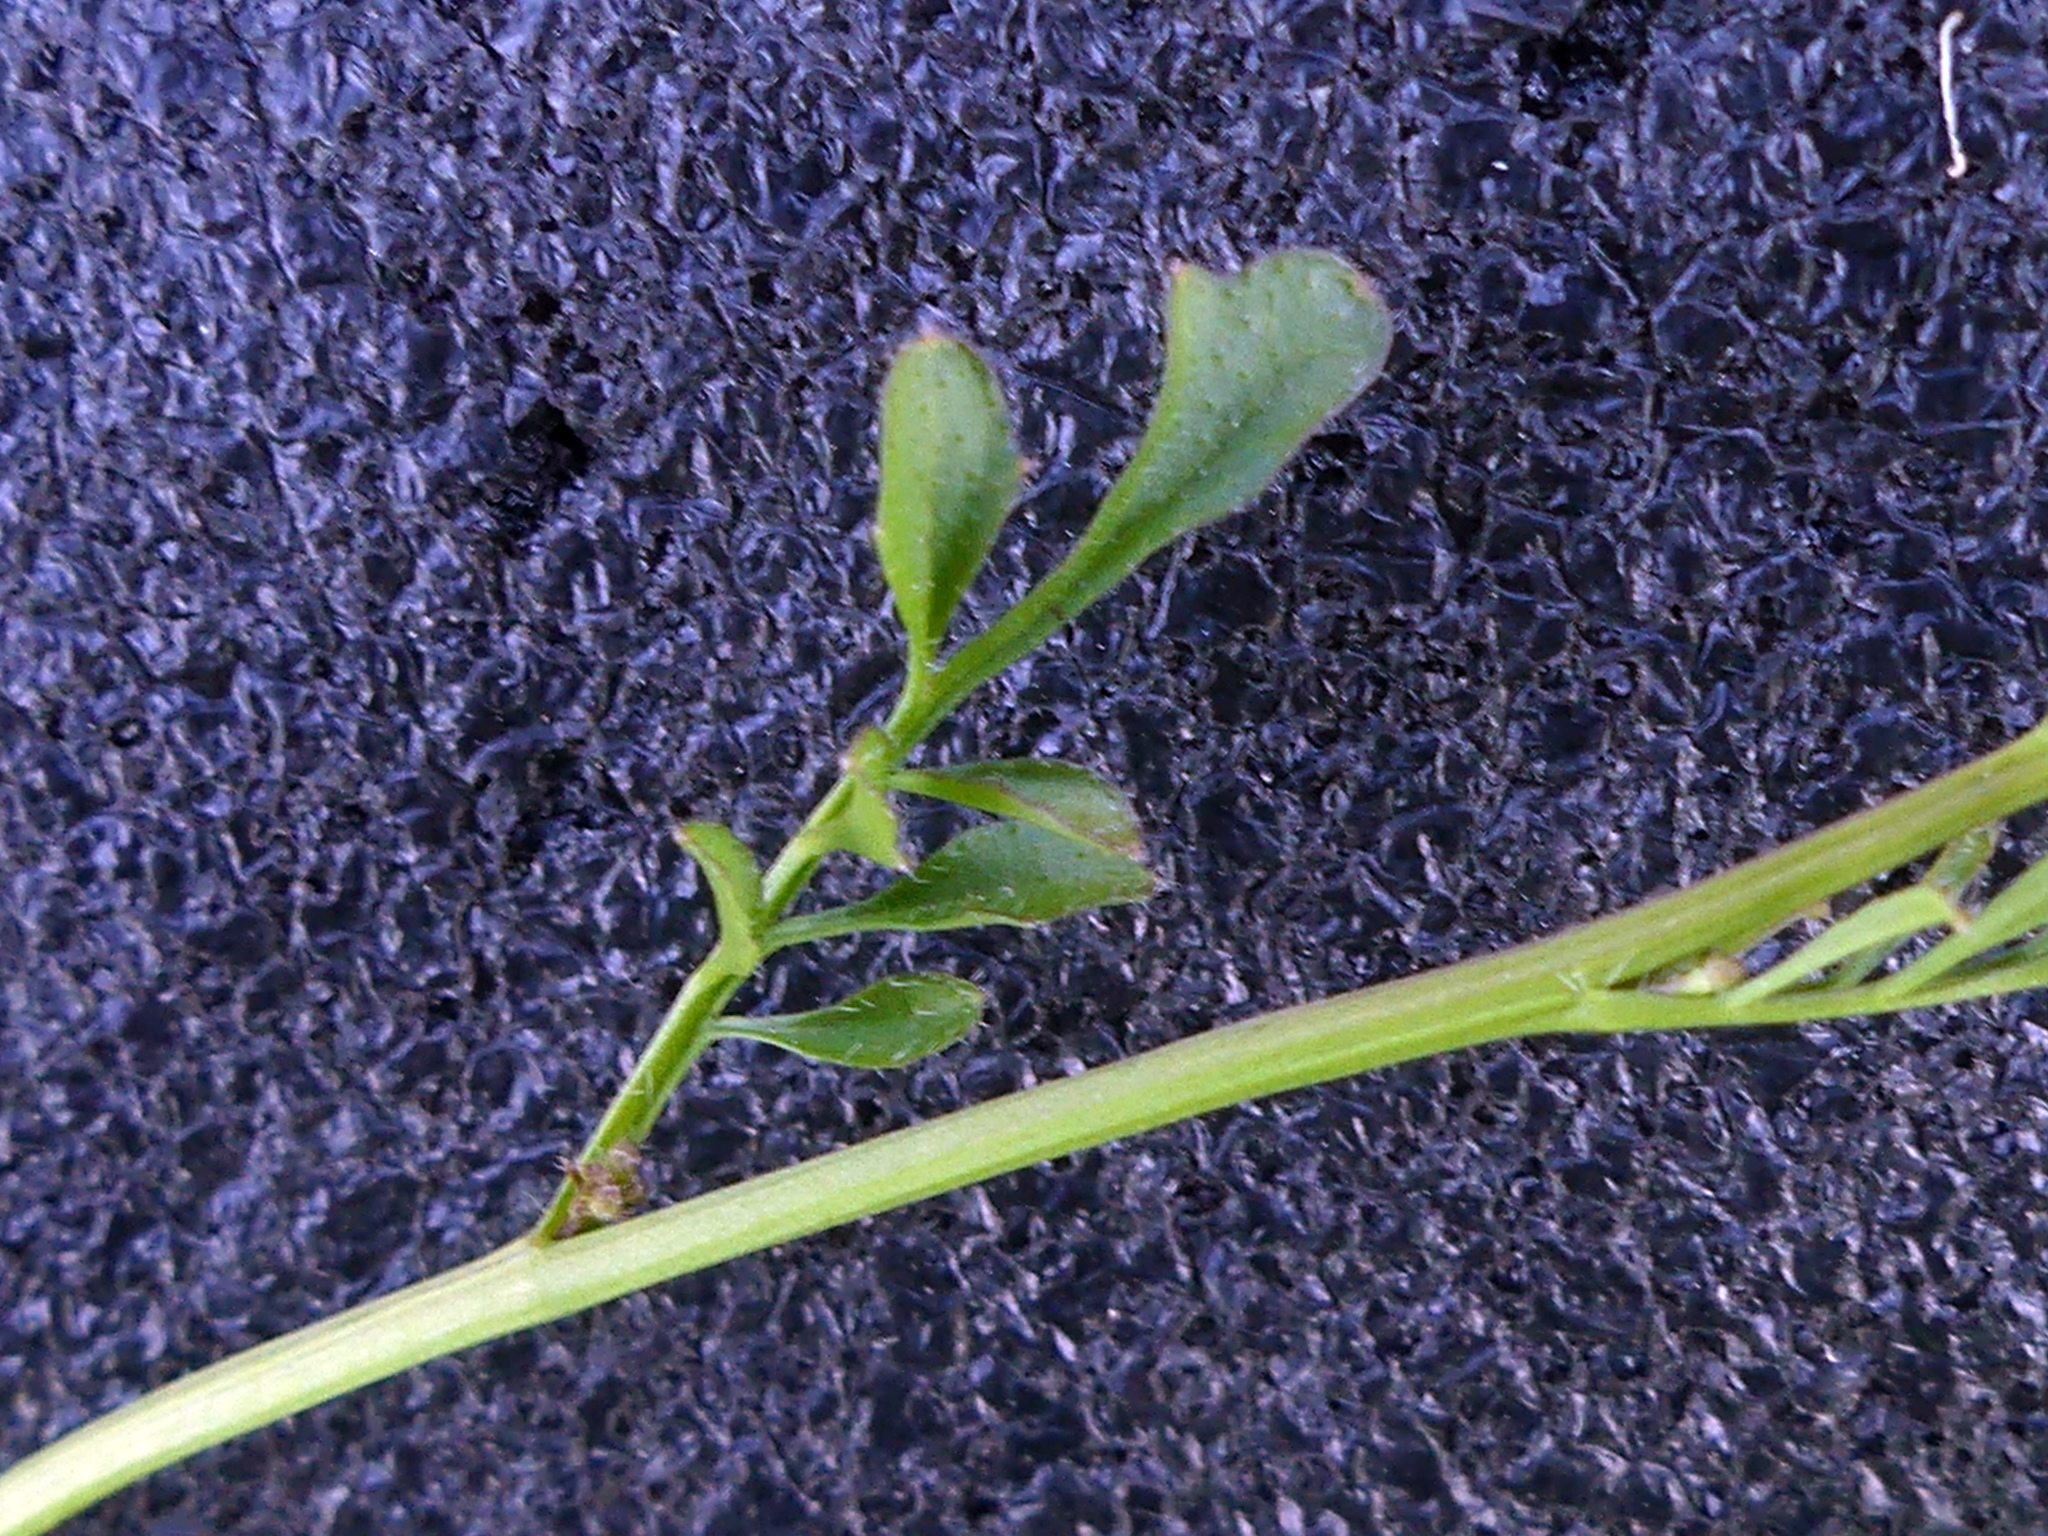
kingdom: Plantae
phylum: Tracheophyta
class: Magnoliopsida
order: Brassicales
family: Brassicaceae
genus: Cardamine
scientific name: Cardamine hirsuta
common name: Hairy bittercress
